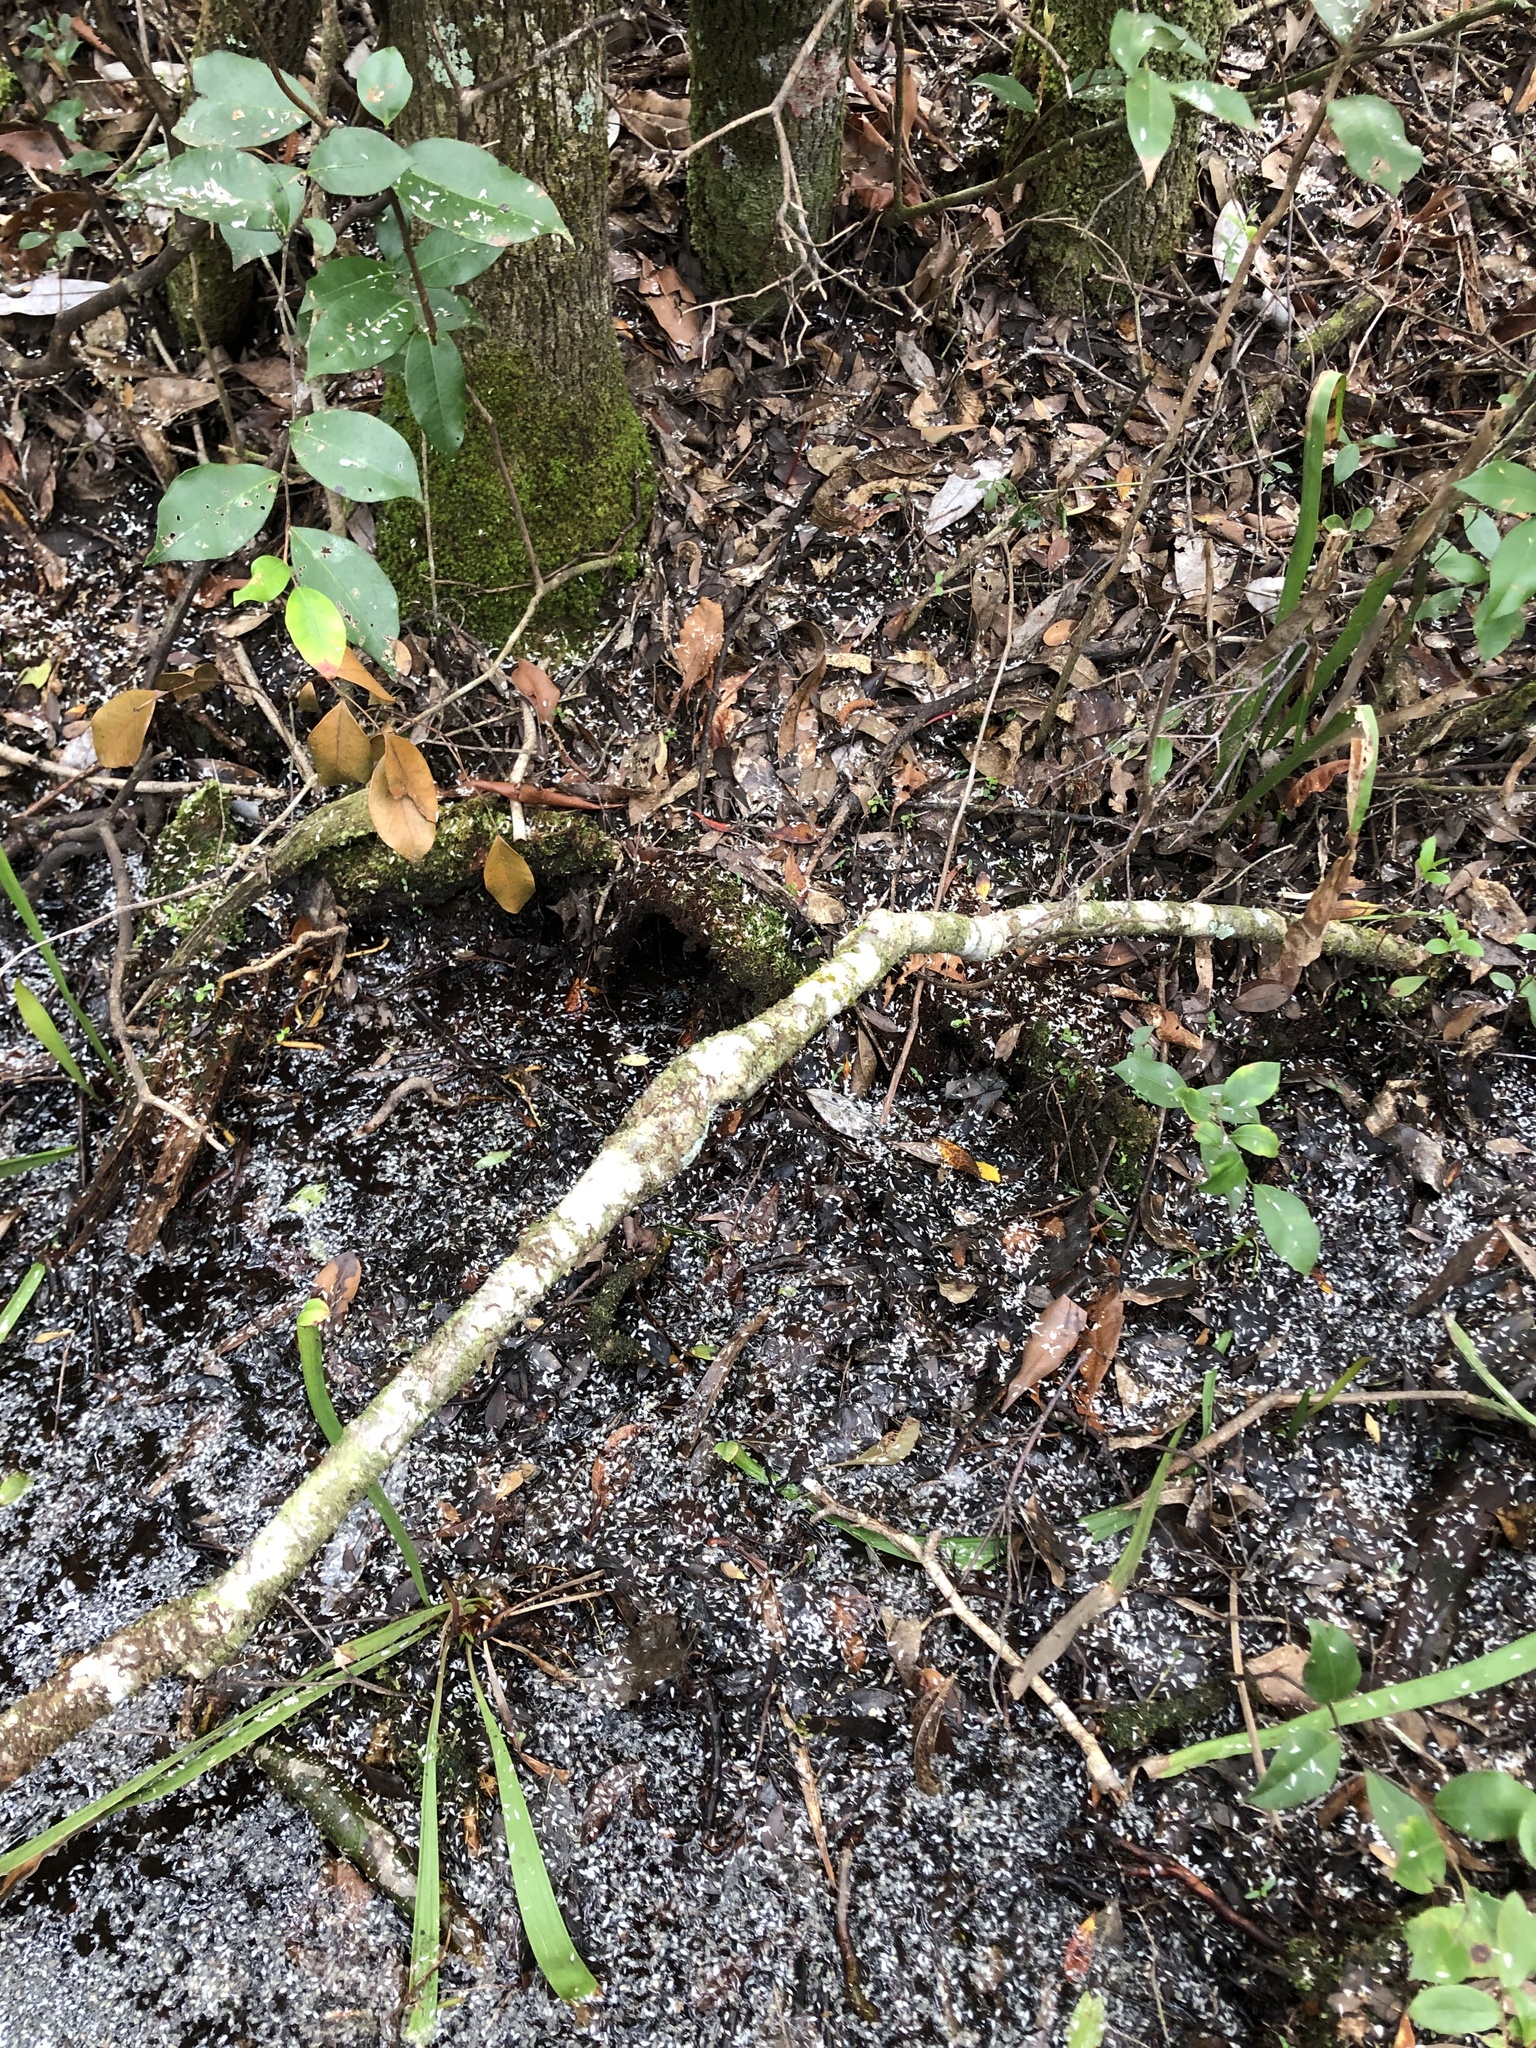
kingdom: Plantae
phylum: Tracheophyta
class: Magnoliopsida
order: Aquifoliales
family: Aquifoliaceae
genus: Ilex
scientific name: Ilex coriacea
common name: Sweet gallberry
